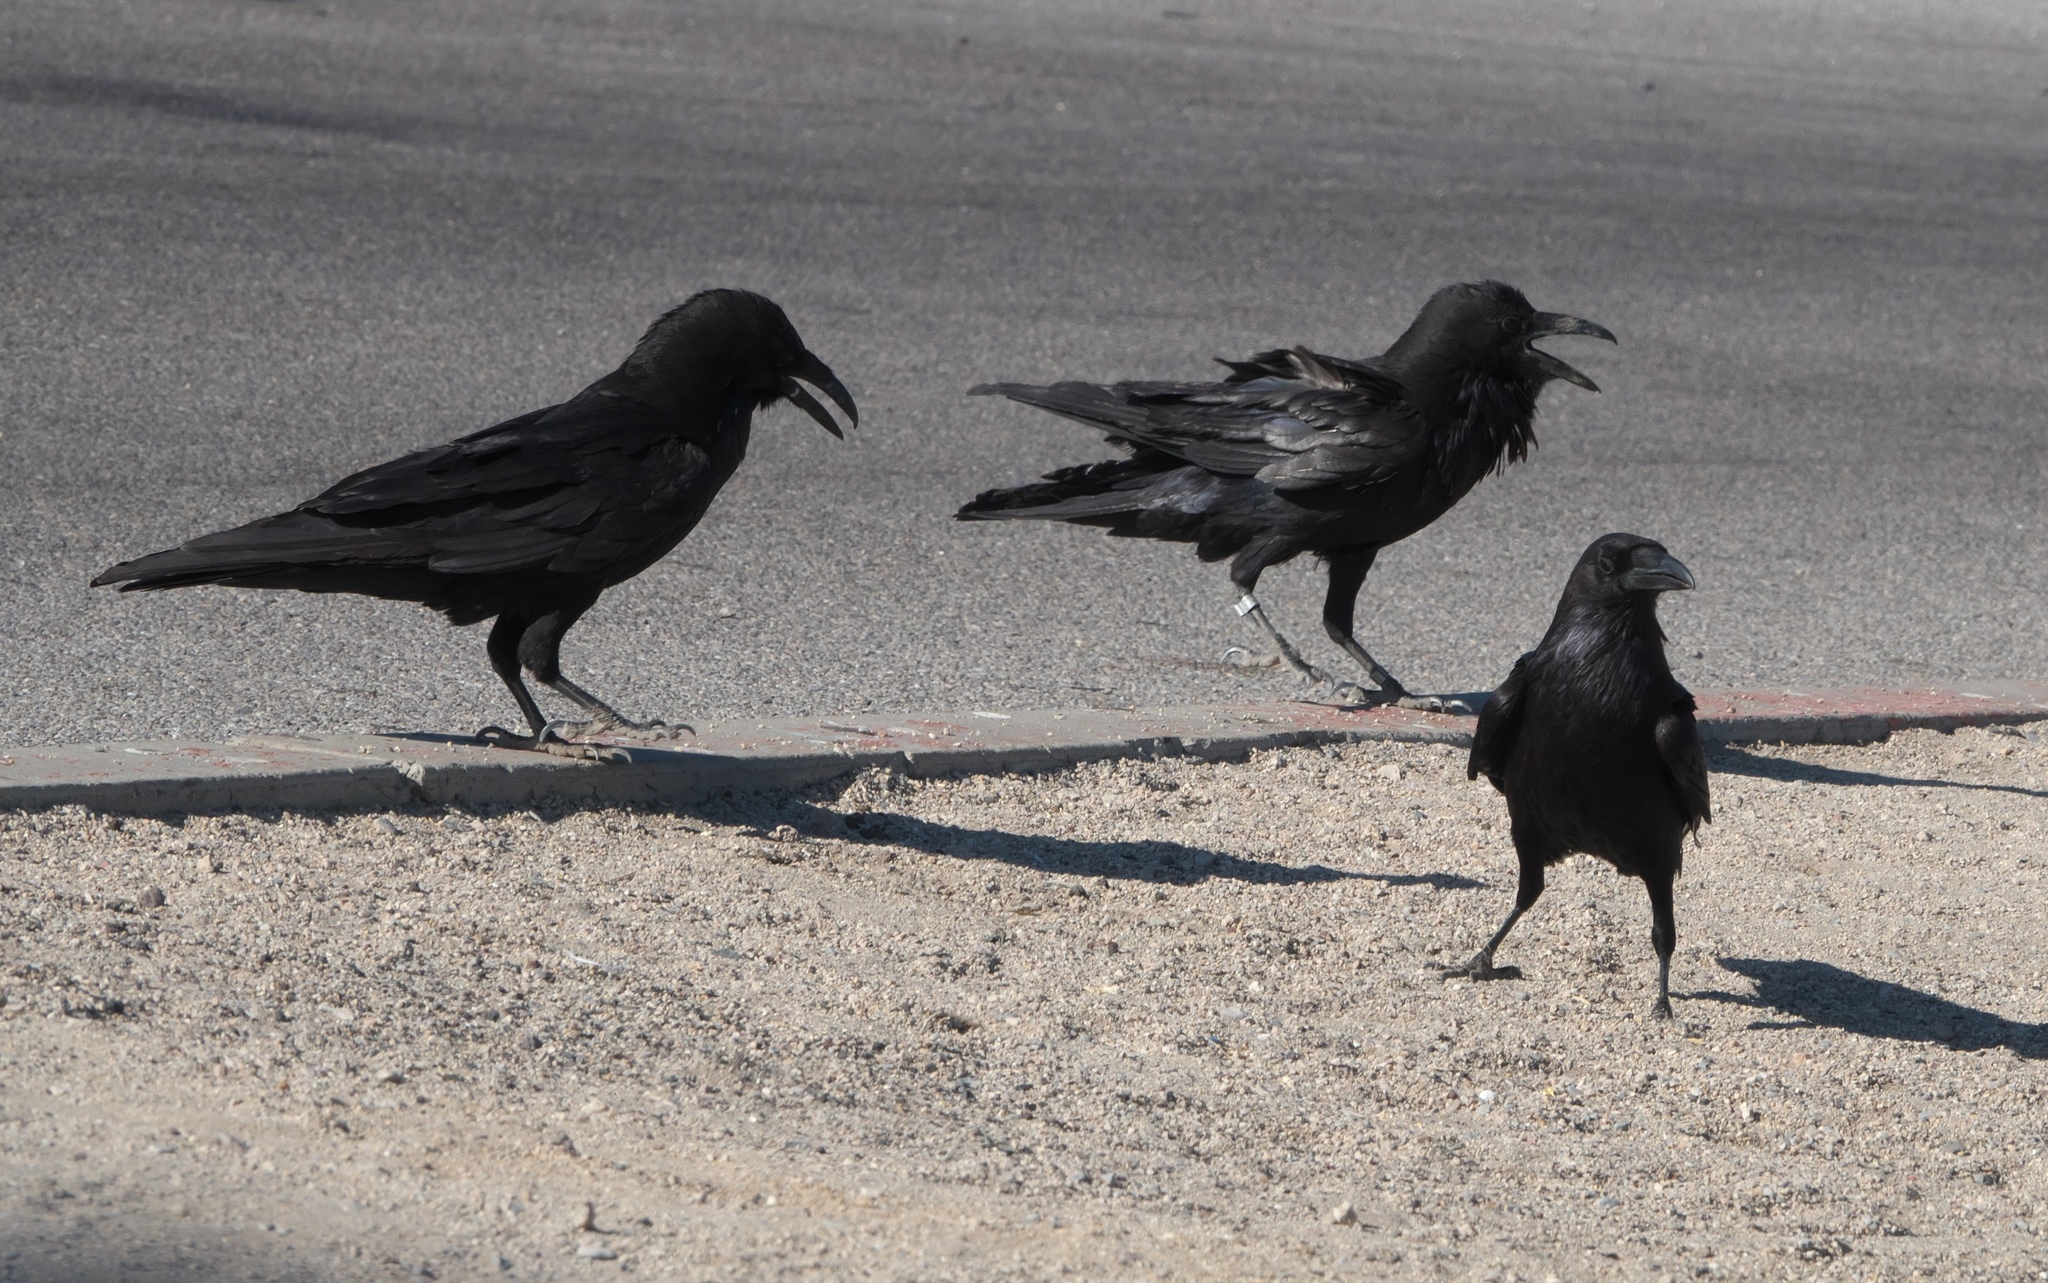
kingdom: Animalia
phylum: Chordata
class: Aves
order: Passeriformes
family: Corvidae
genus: Corvus
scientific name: Corvus corax
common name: Common raven
